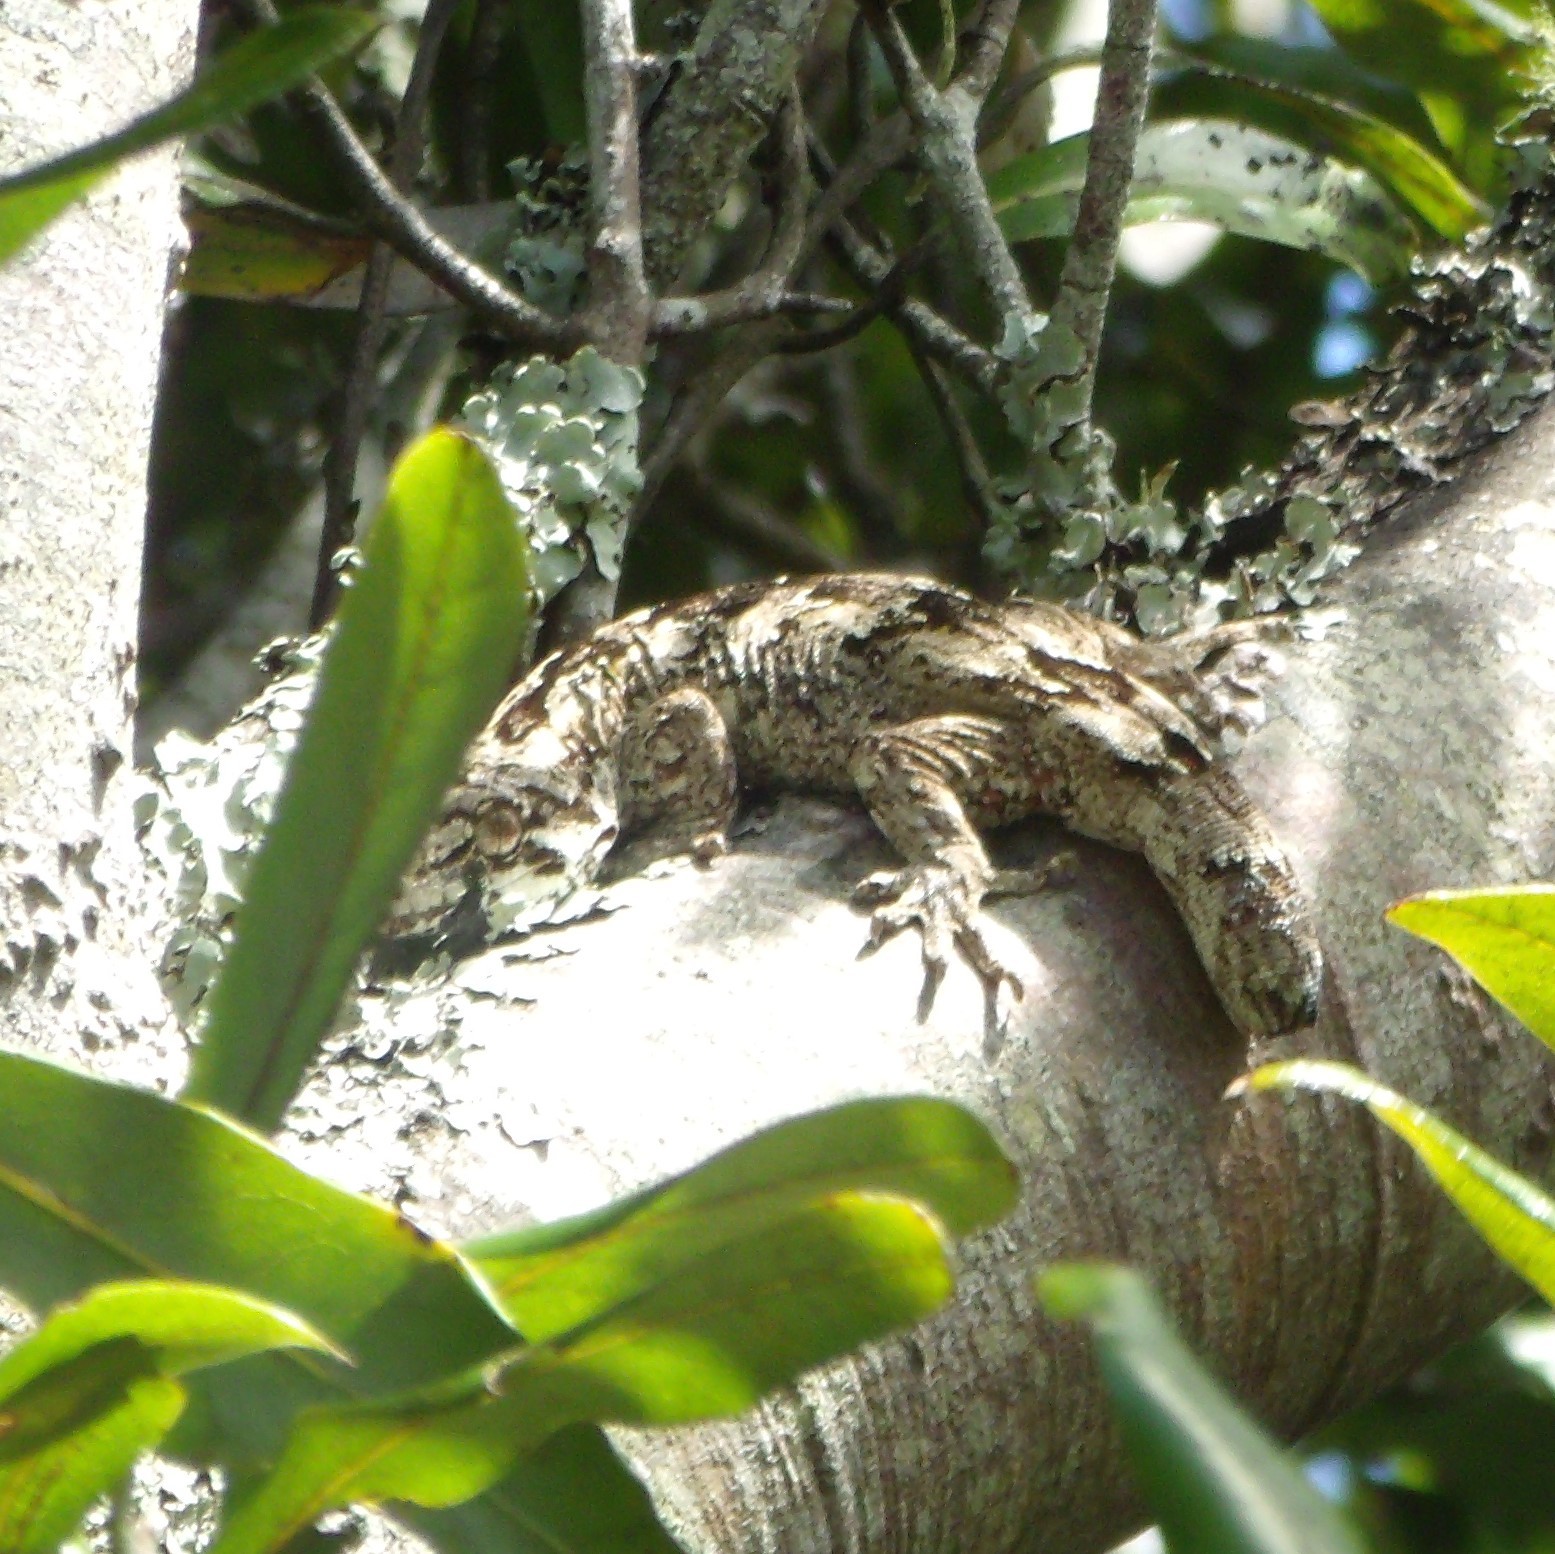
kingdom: Animalia
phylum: Chordata
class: Squamata
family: Diplodactylidae
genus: Mokopirirakau
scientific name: Mokopirirakau
